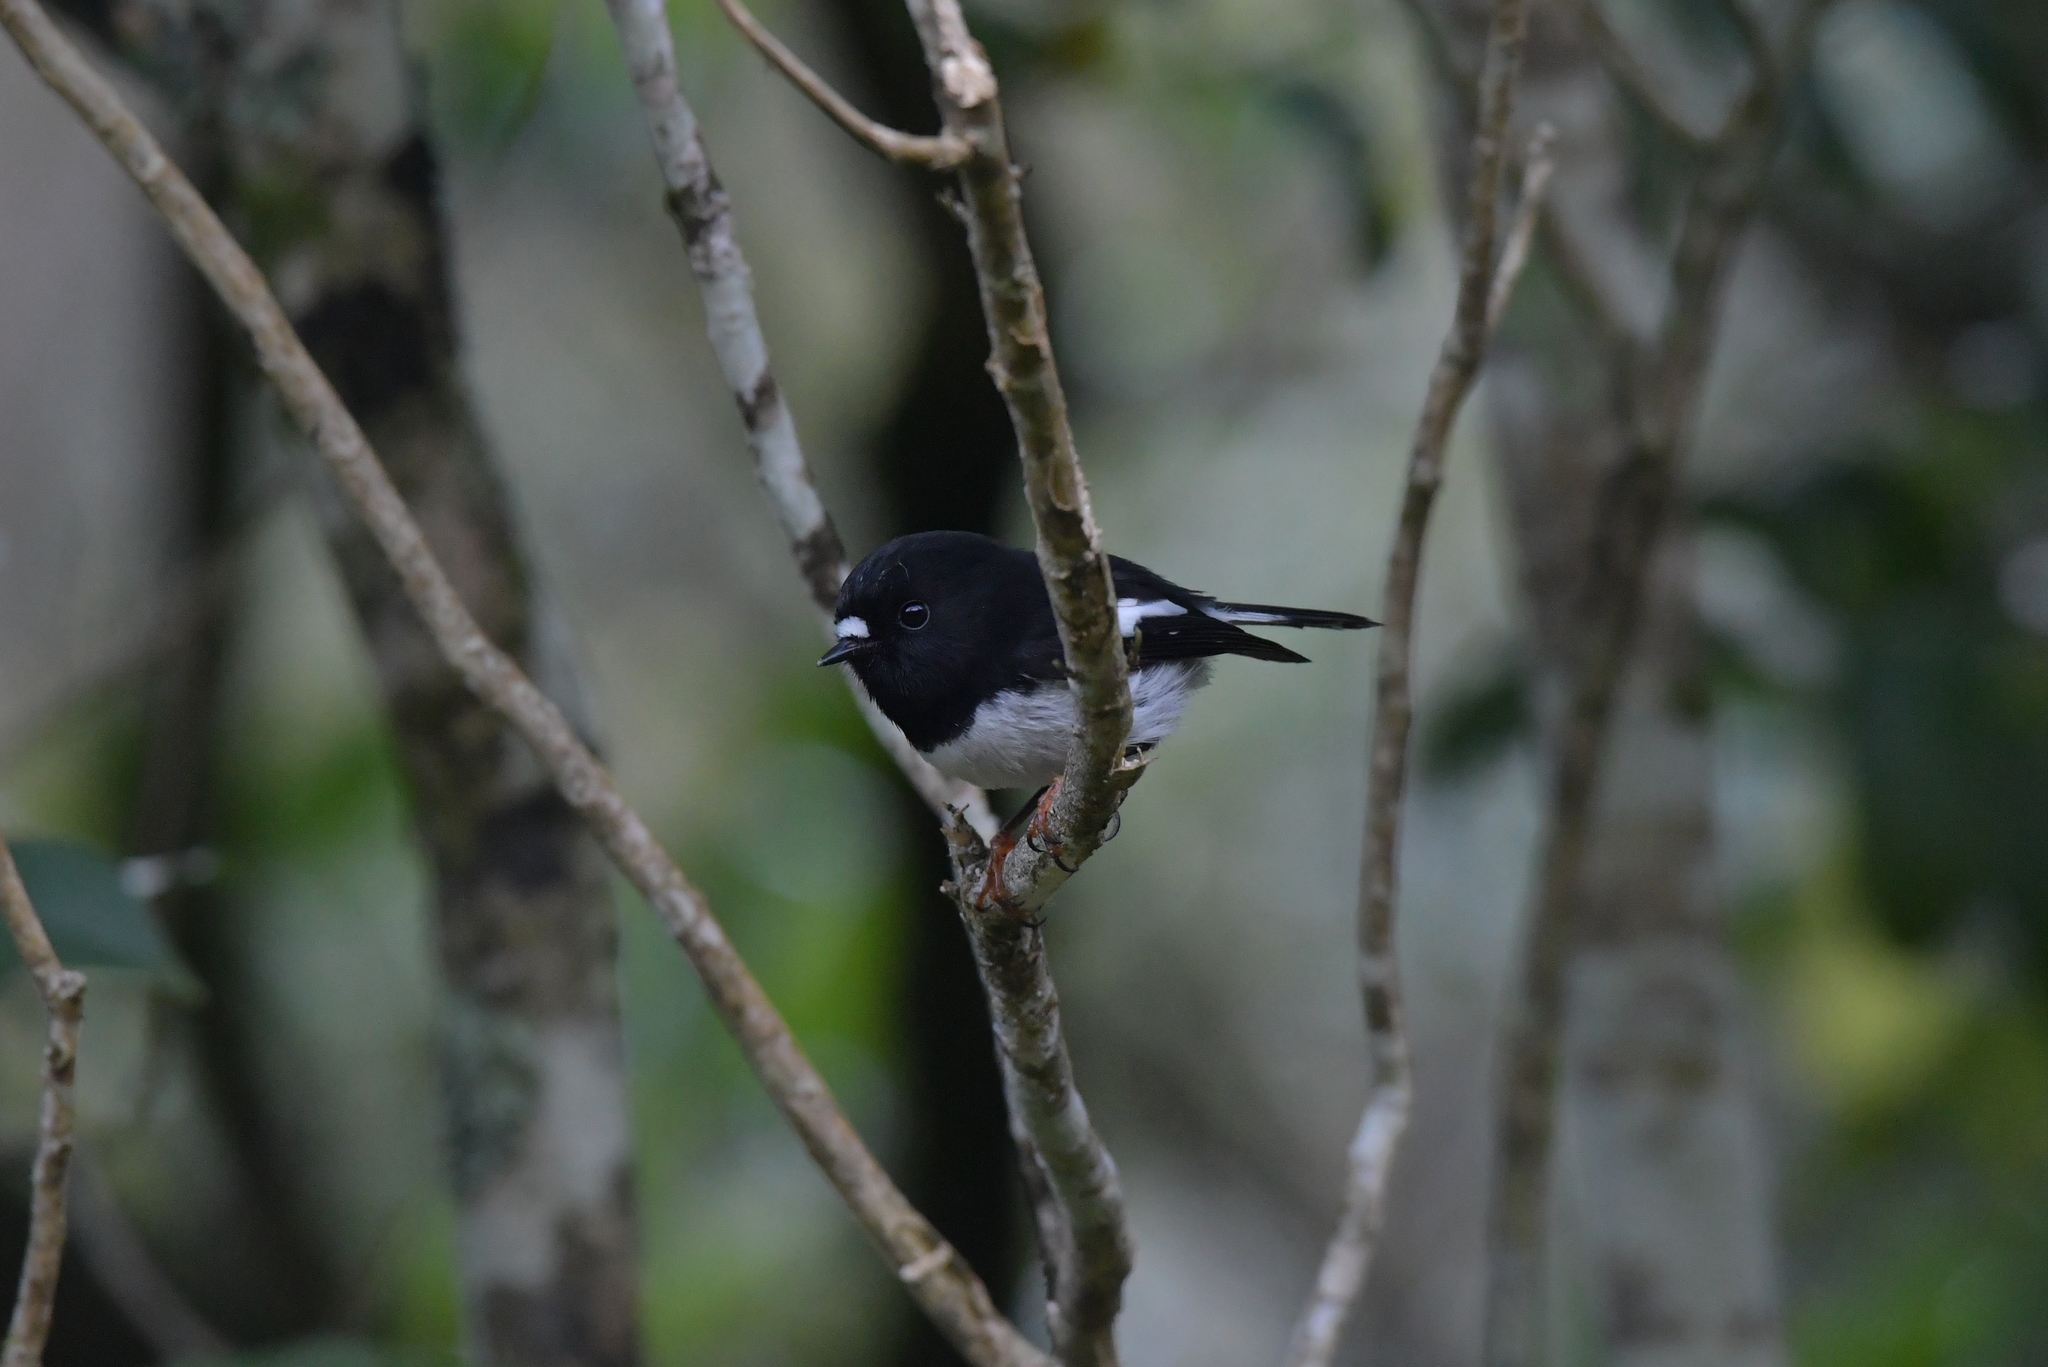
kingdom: Animalia
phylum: Chordata
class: Aves
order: Passeriformes
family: Petroicidae
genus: Petroica
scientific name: Petroica macrocephala
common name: Tomtit
